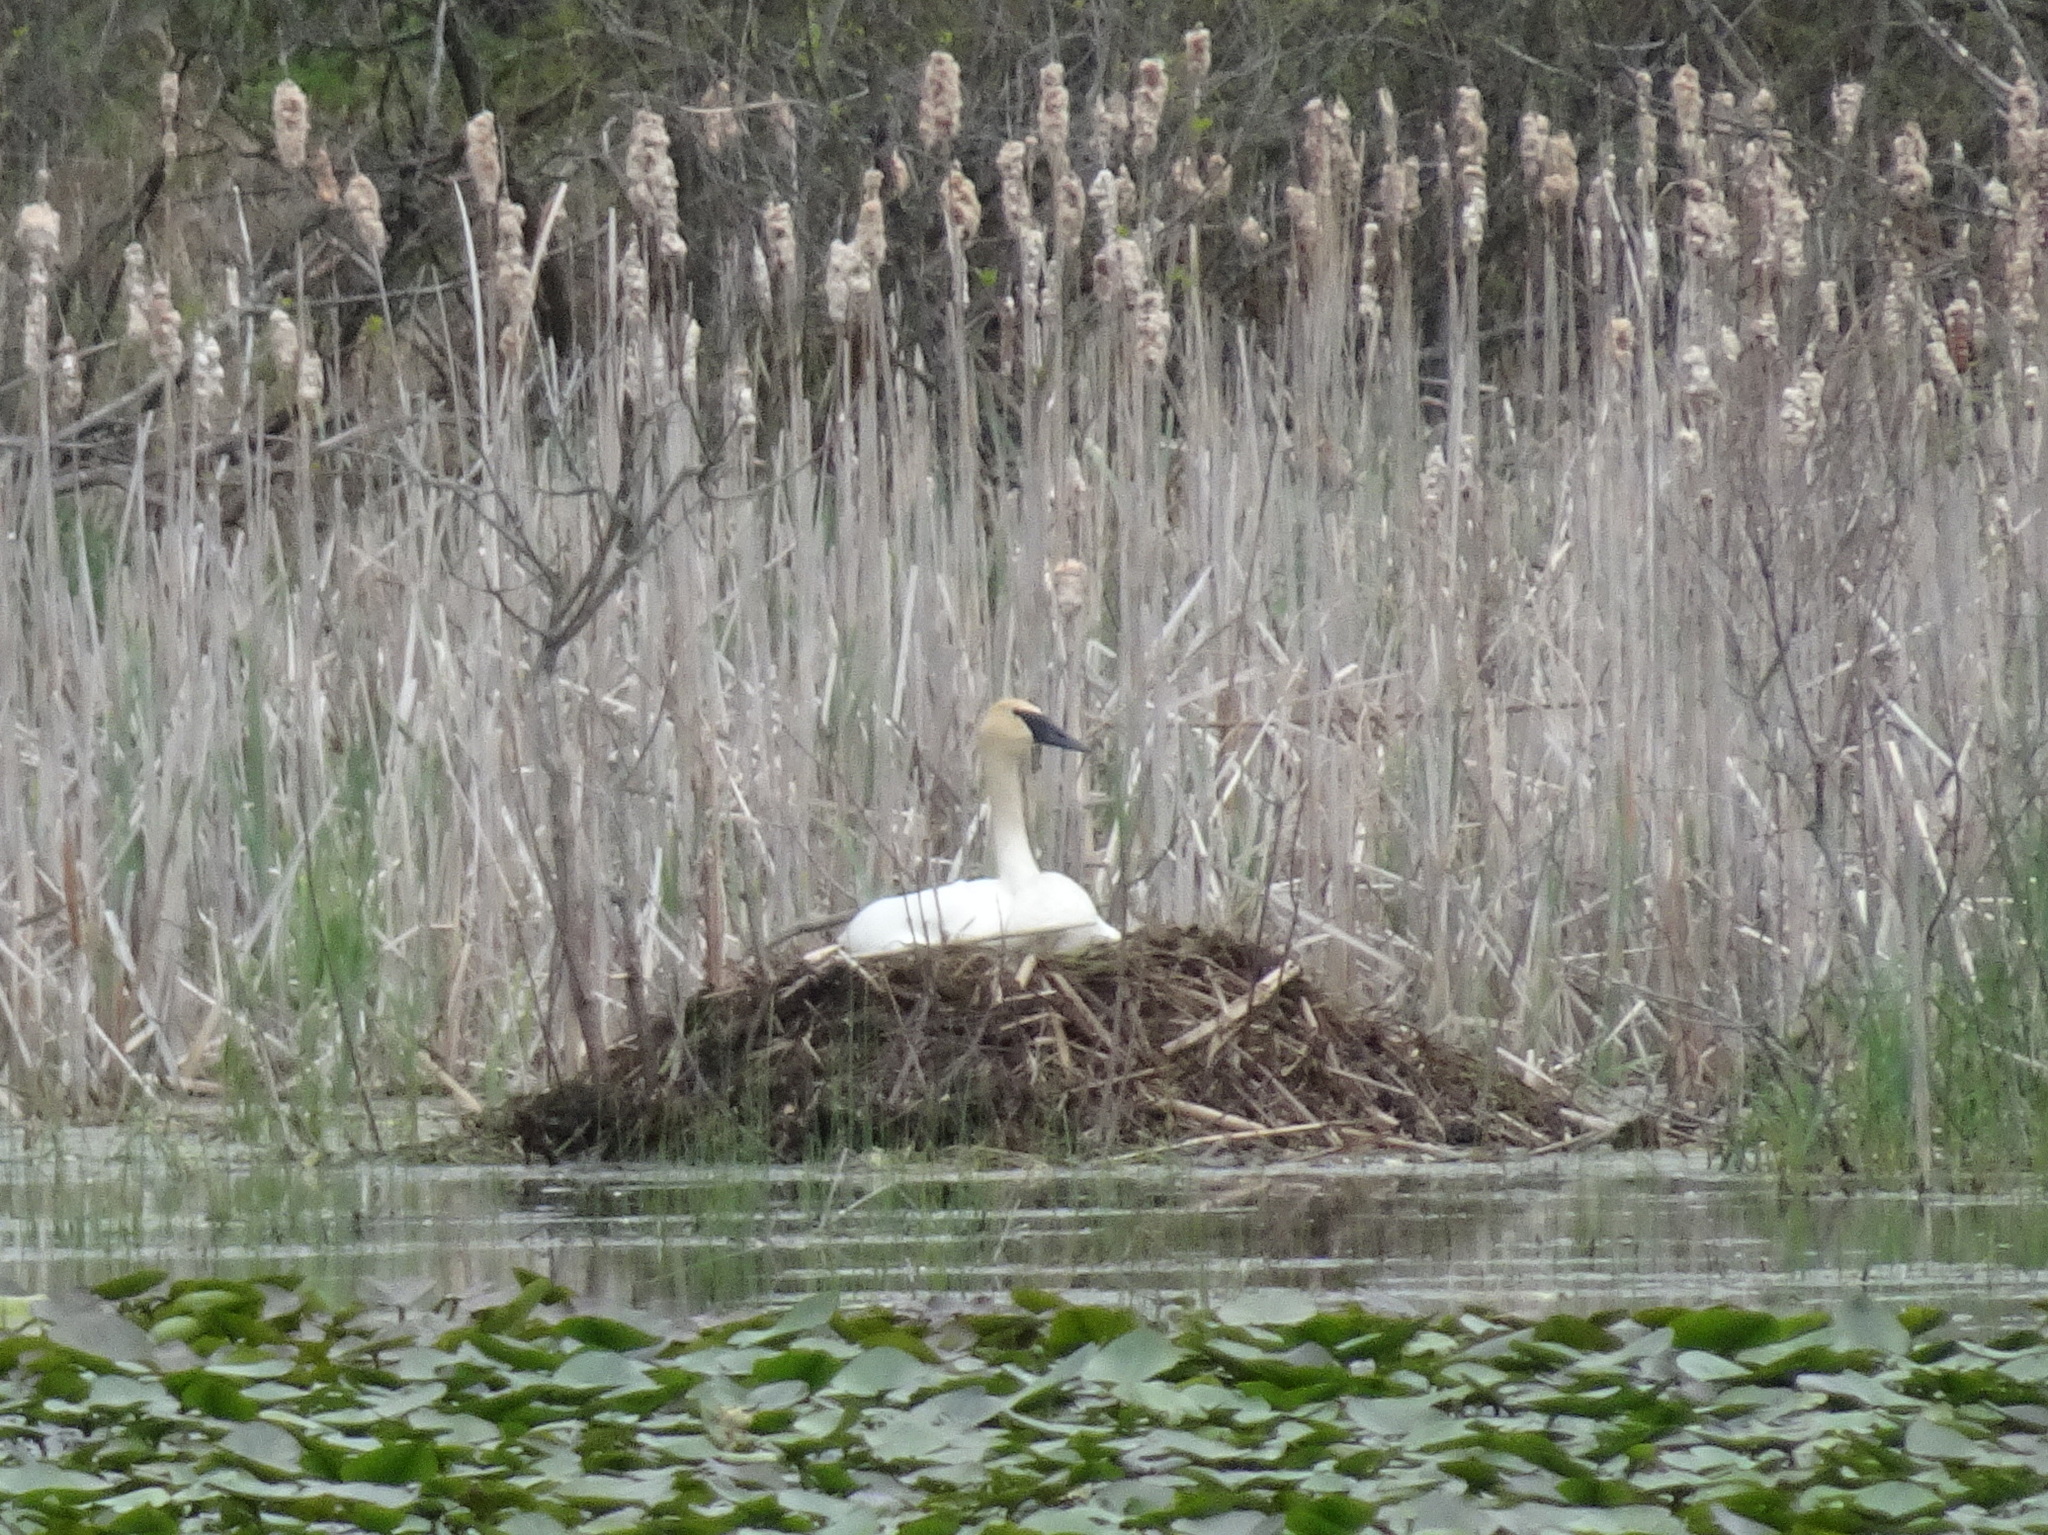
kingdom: Animalia
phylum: Chordata
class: Aves
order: Anseriformes
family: Anatidae
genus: Cygnus
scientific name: Cygnus buccinator
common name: Trumpeter swan
